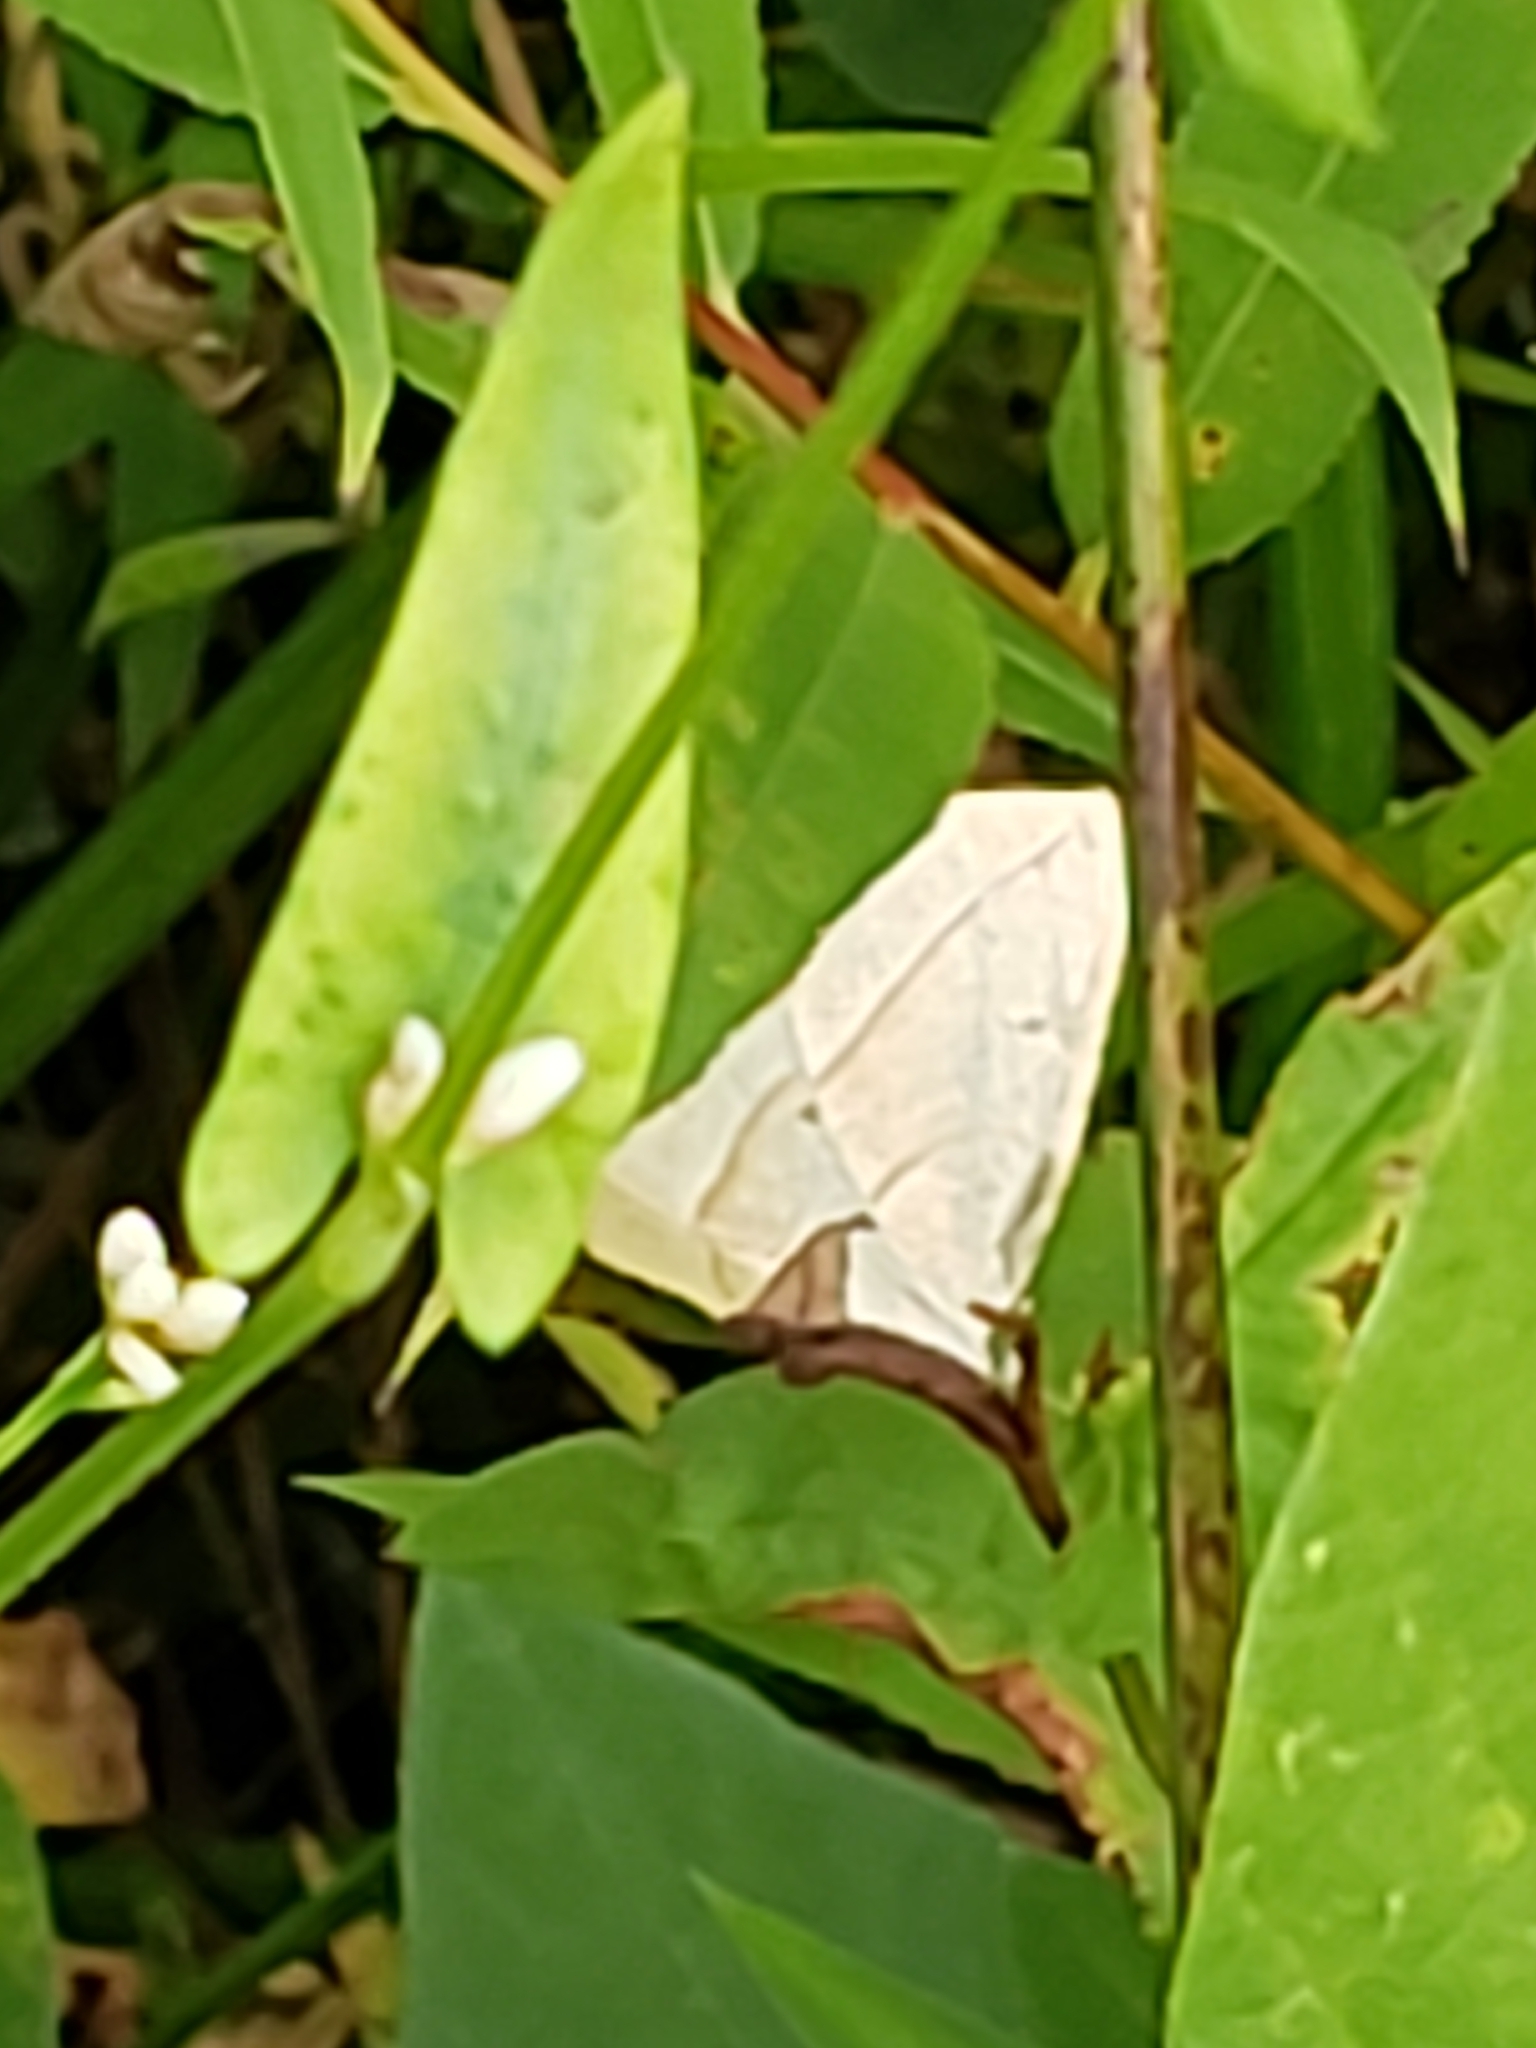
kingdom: Animalia
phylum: Arthropoda
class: Insecta
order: Lepidoptera
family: Geometridae
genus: Eusarca
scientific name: Eusarca confusaria
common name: Confused eusarca
